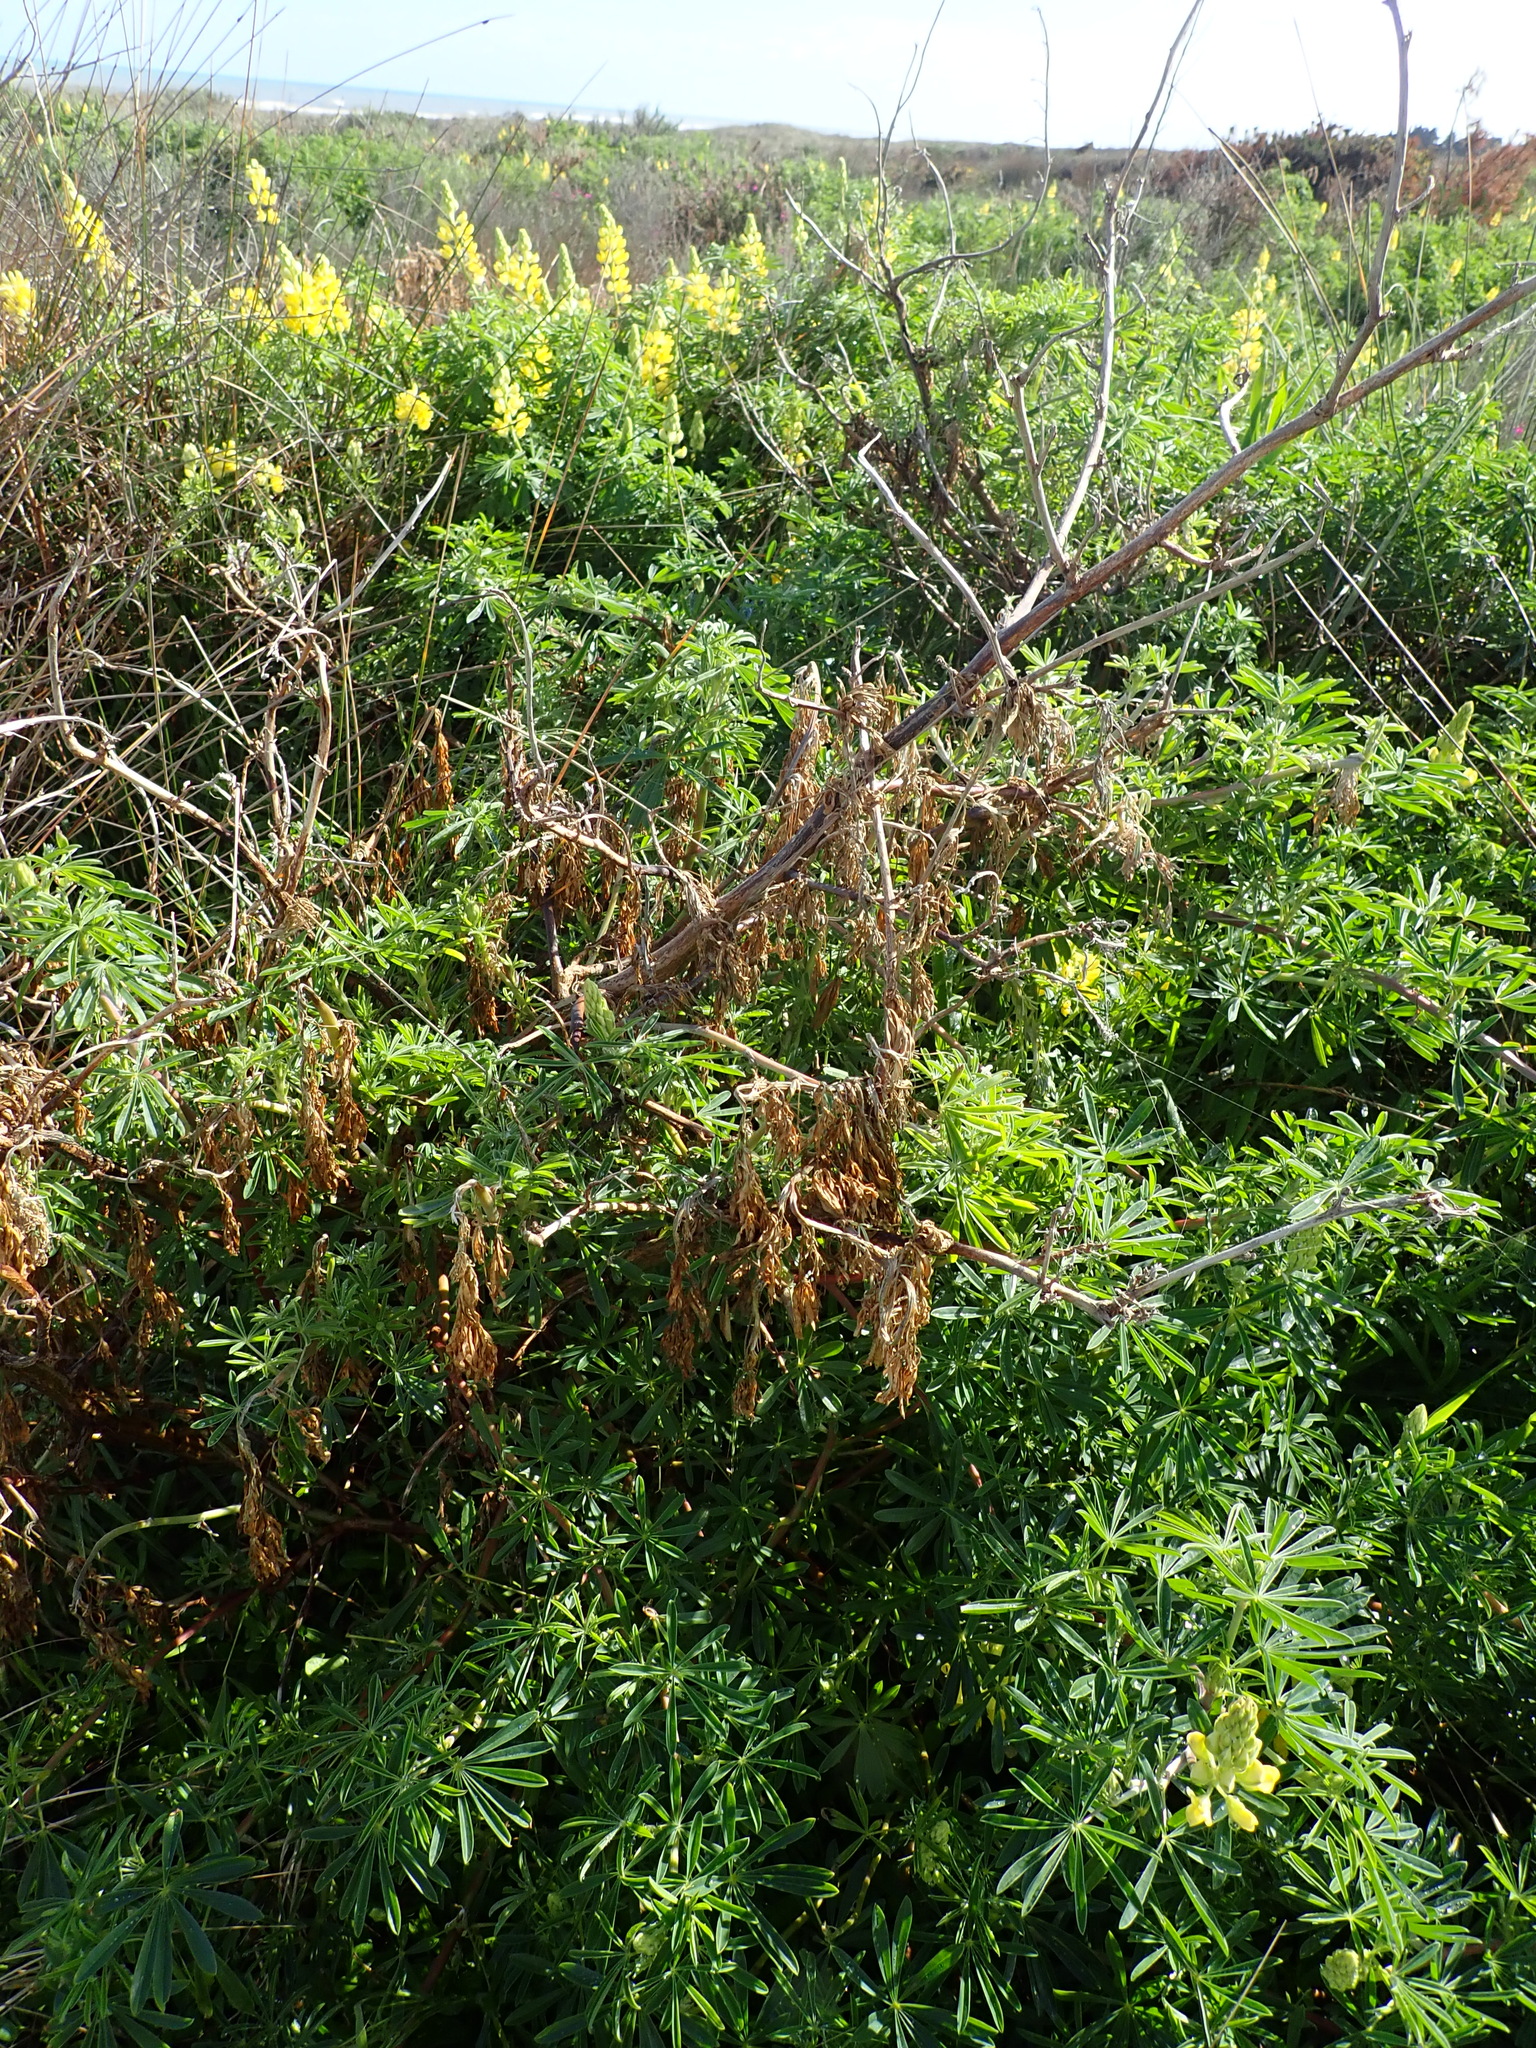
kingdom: Plantae
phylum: Tracheophyta
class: Magnoliopsida
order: Fabales
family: Fabaceae
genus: Lupinus
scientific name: Lupinus arboreus
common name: Yellow bush lupine
